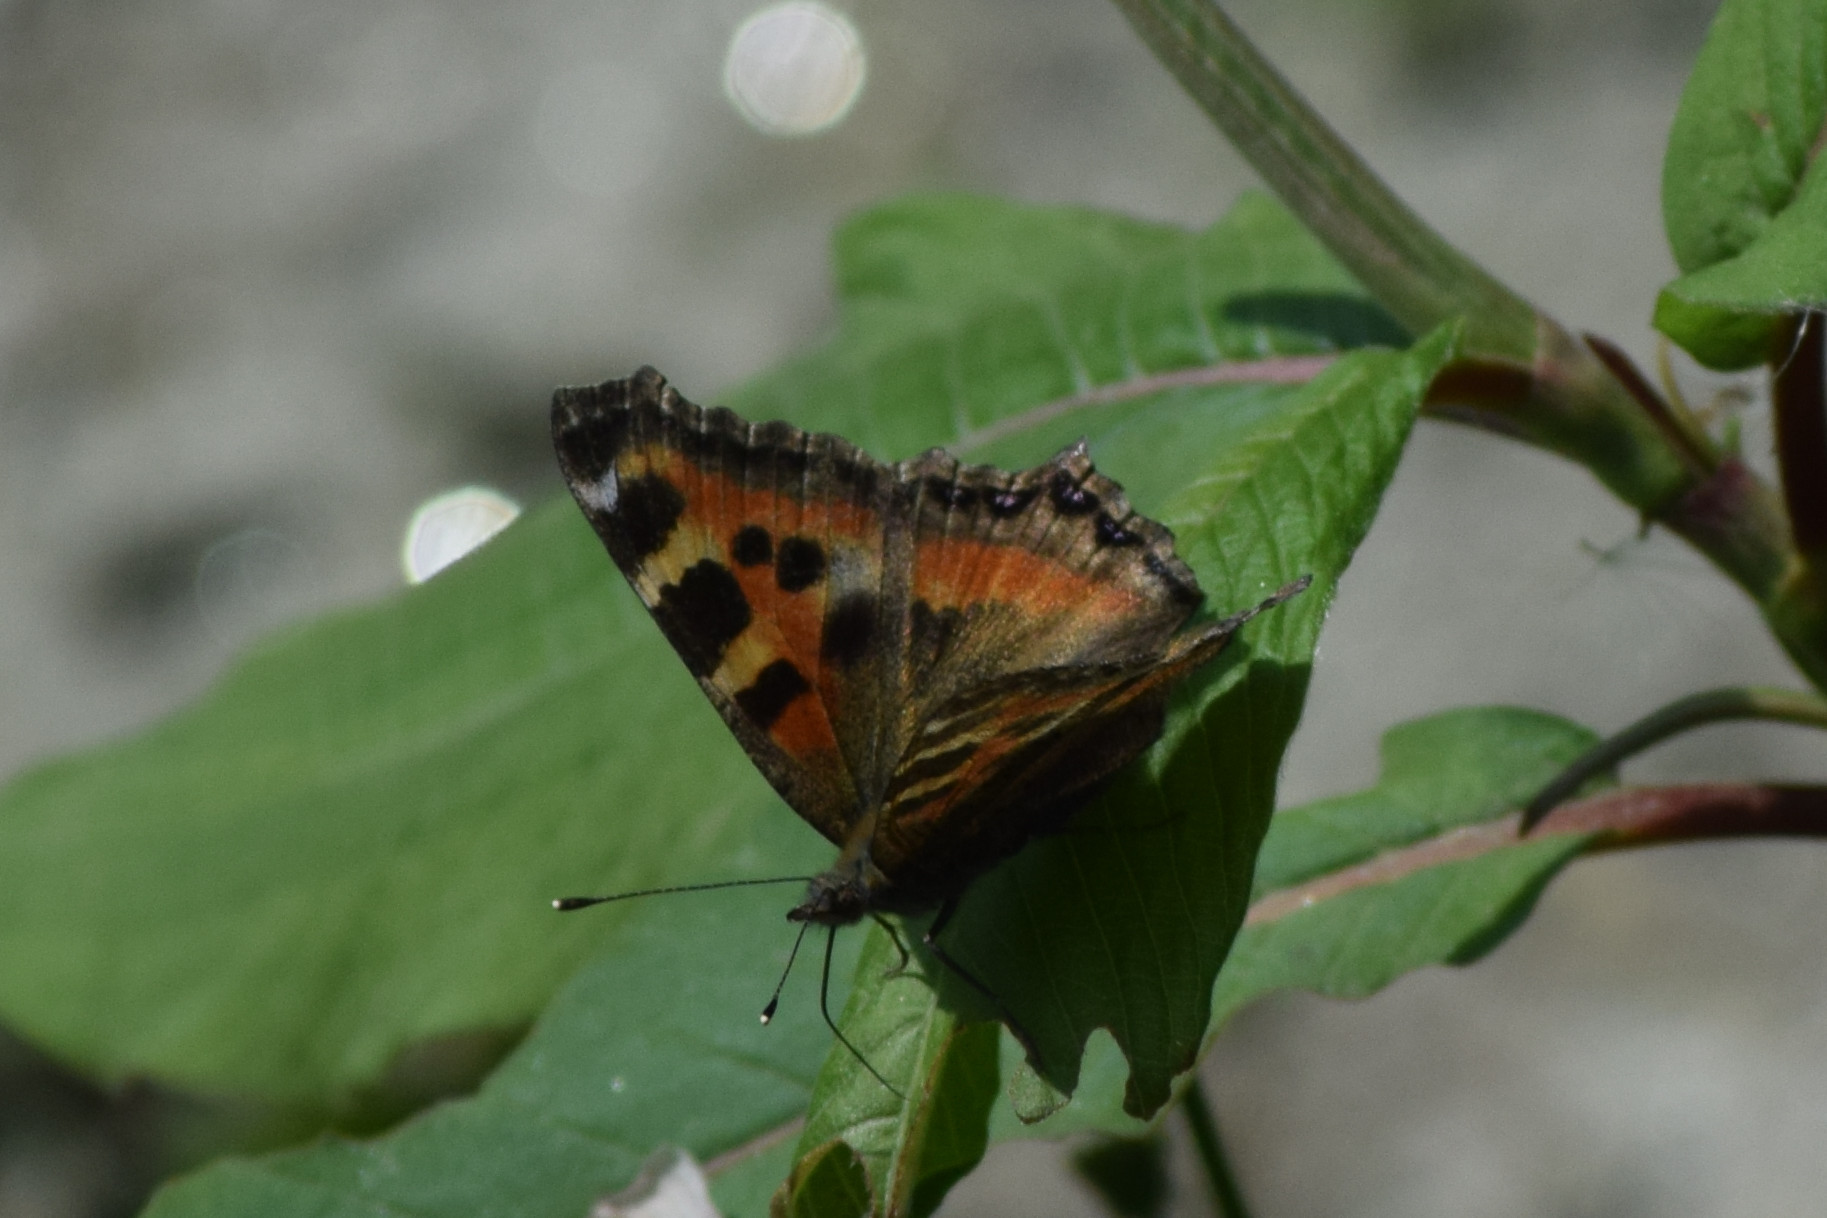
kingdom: Animalia
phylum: Arthropoda
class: Insecta
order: Lepidoptera
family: Nymphalidae
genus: Aglais
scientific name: Aglais caschmirensis
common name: Indian tortoiseshell
